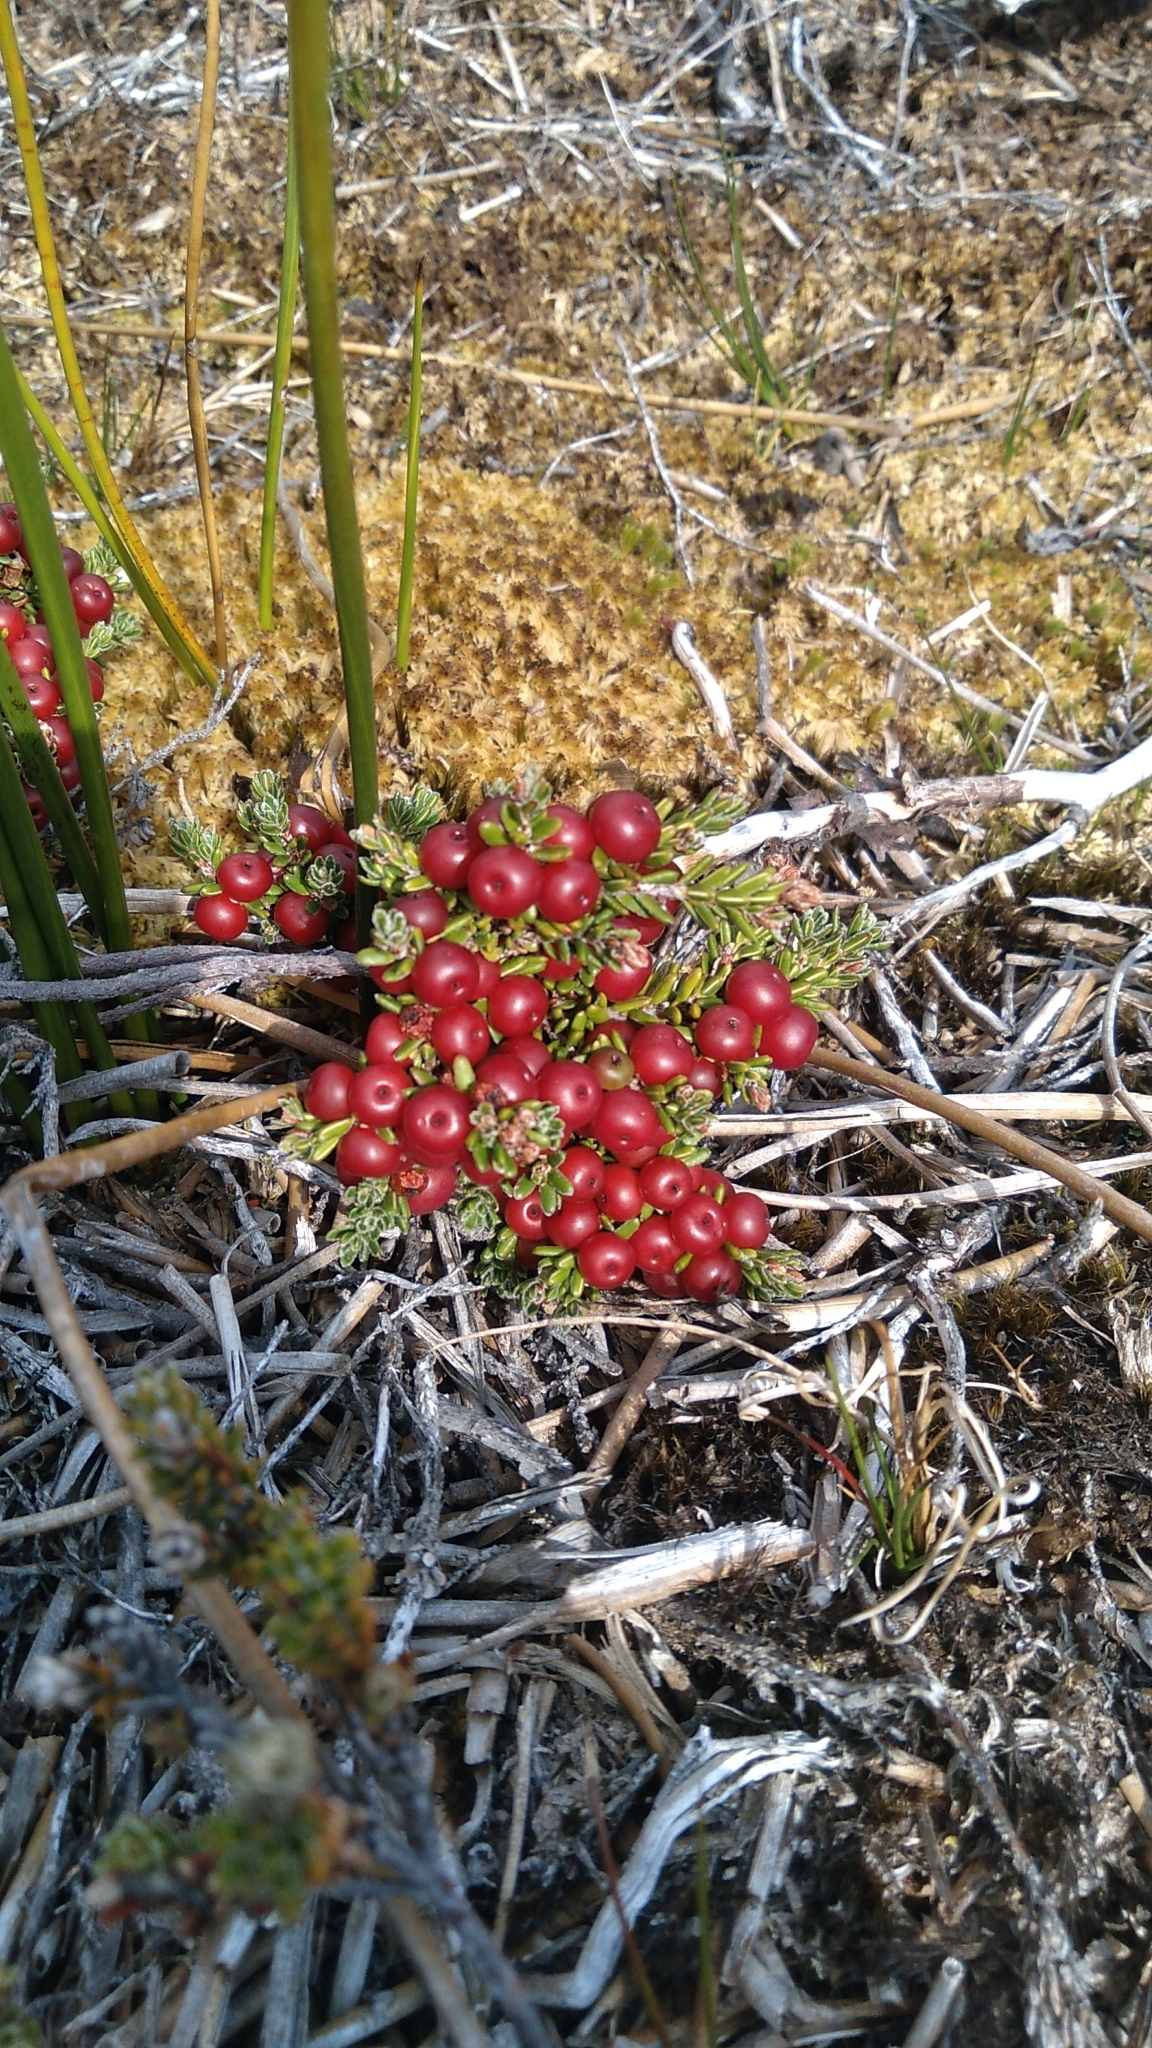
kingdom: Plantae
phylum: Tracheophyta
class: Magnoliopsida
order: Ericales
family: Ericaceae
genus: Empetrum
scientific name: Empetrum rubrum
